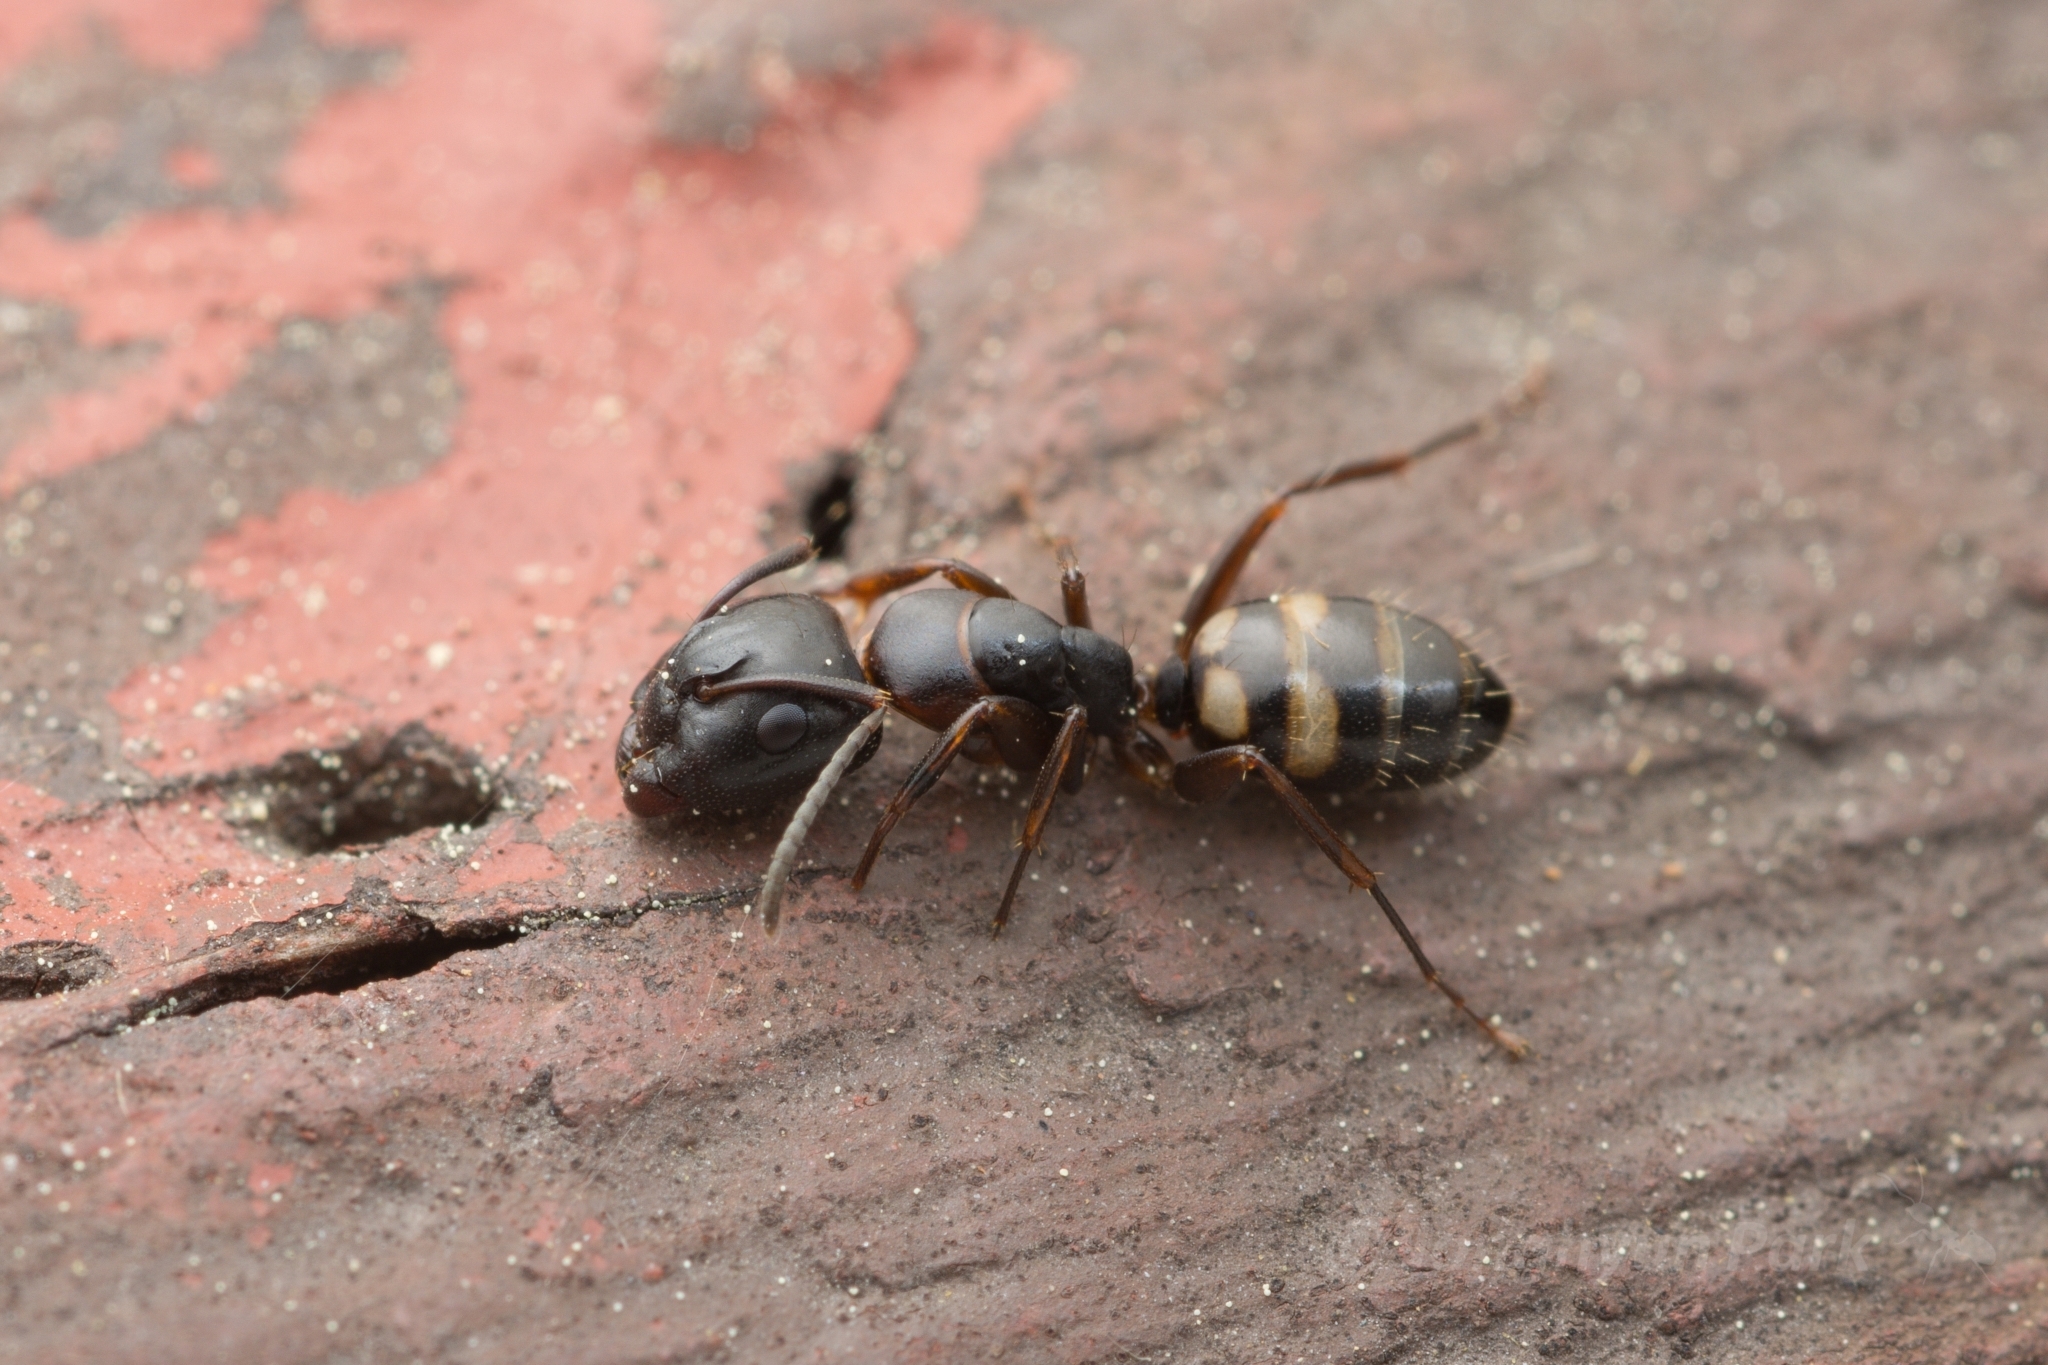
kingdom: Animalia
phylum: Arthropoda
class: Insecta
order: Hymenoptera
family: Formicidae
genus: Camponotus
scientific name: Camponotus quadrinotatus
